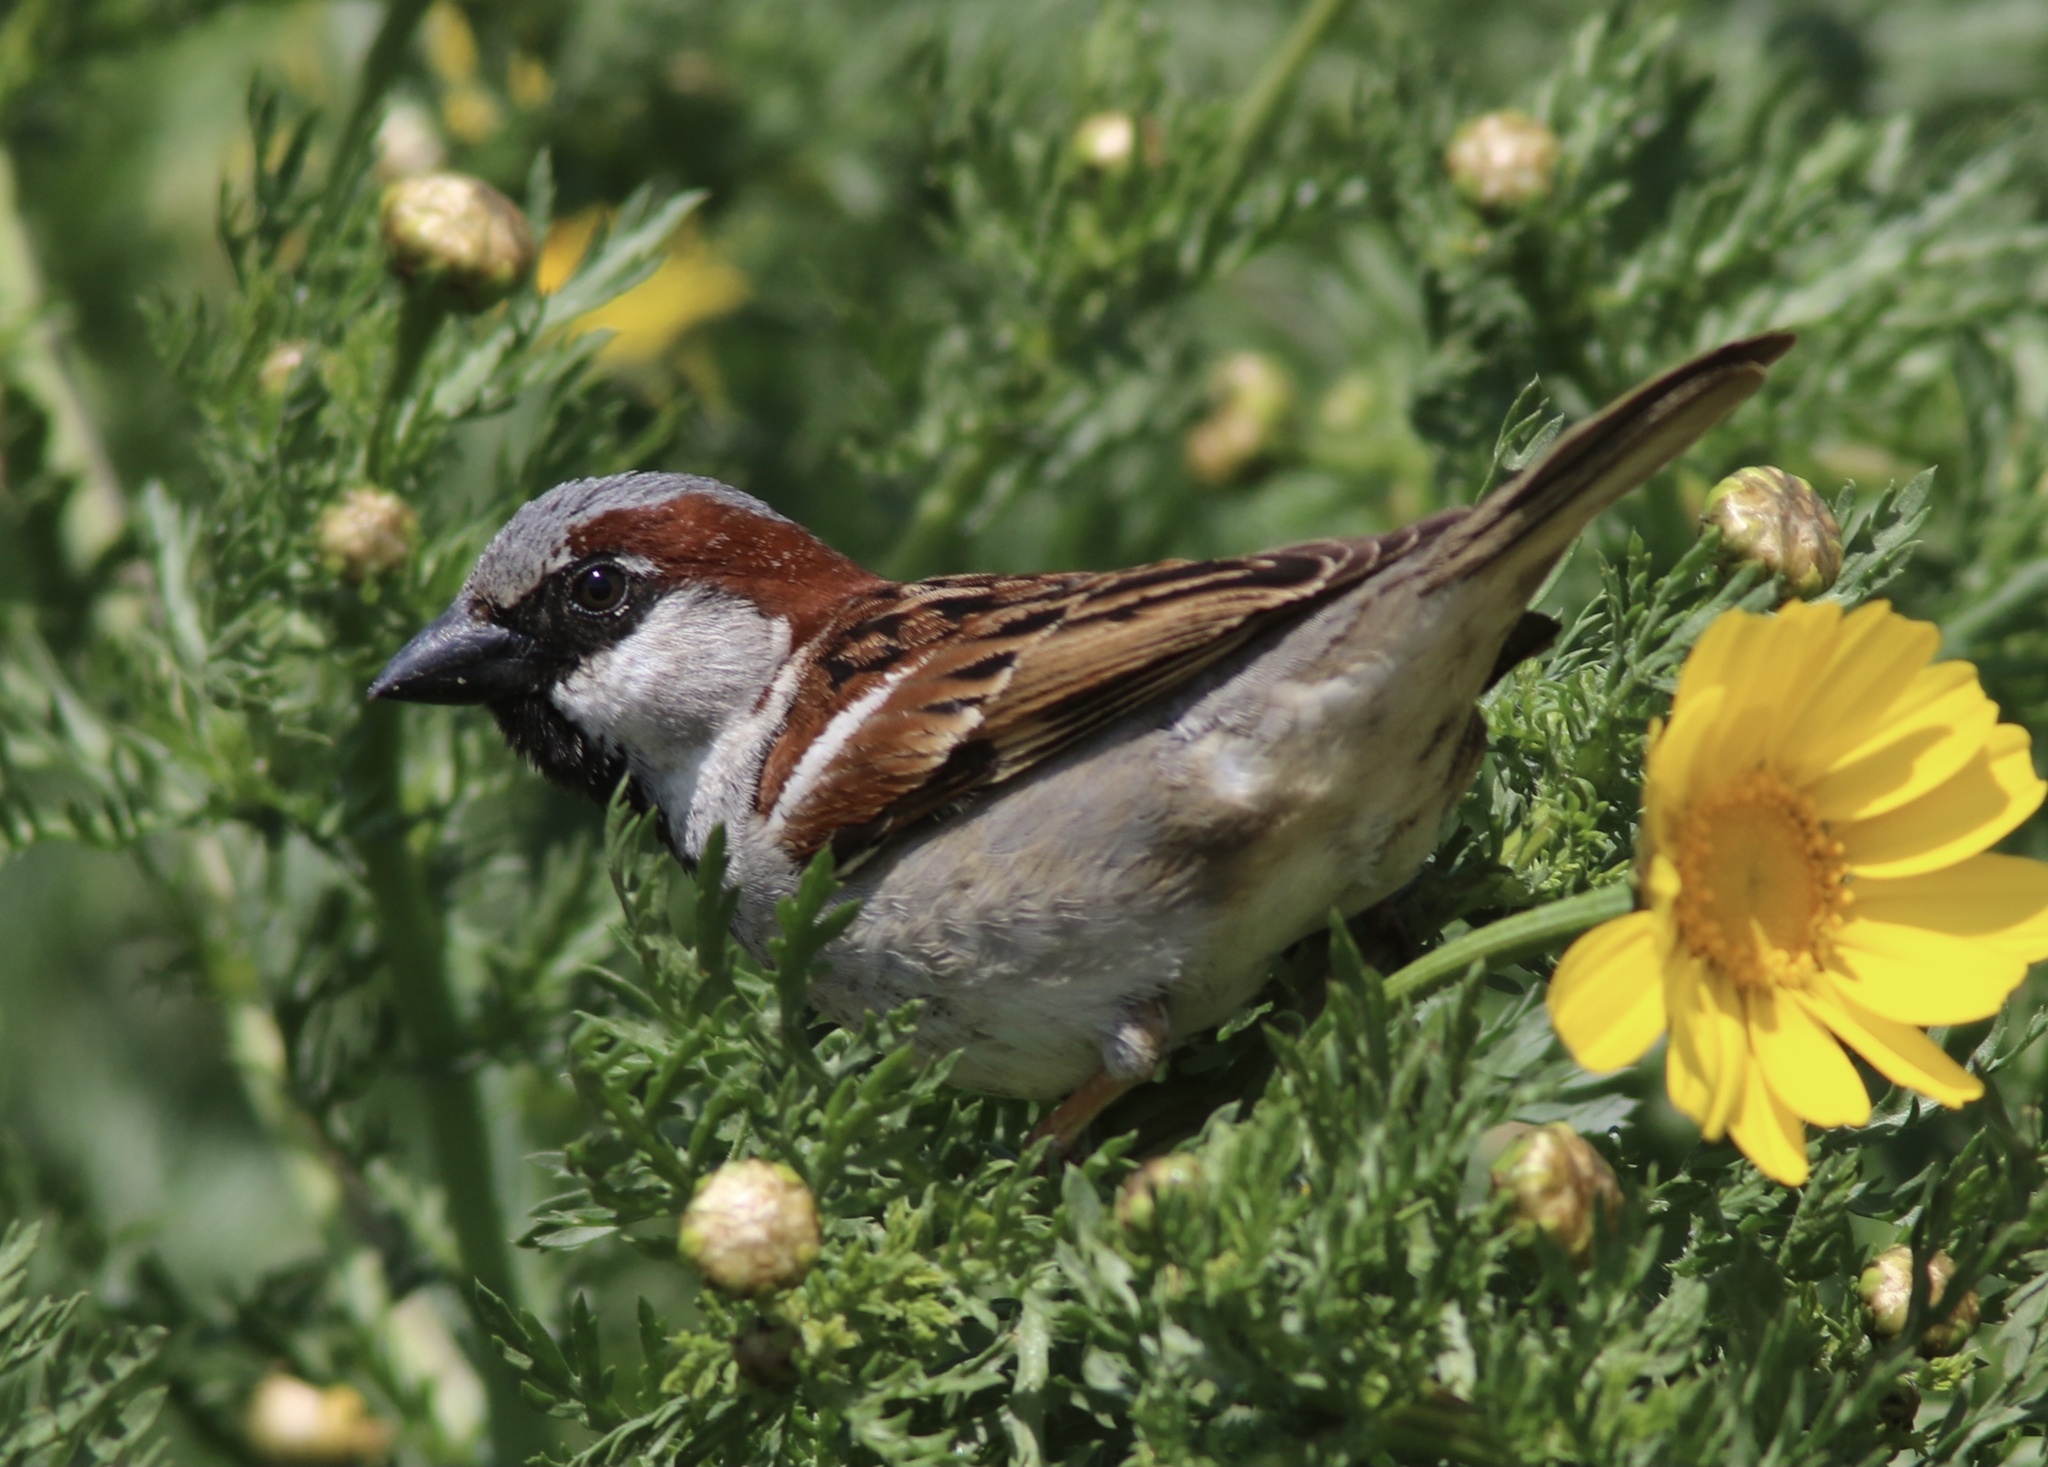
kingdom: Animalia
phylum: Chordata
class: Aves
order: Passeriformes
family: Passeridae
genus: Passer
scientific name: Passer domesticus
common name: House sparrow
